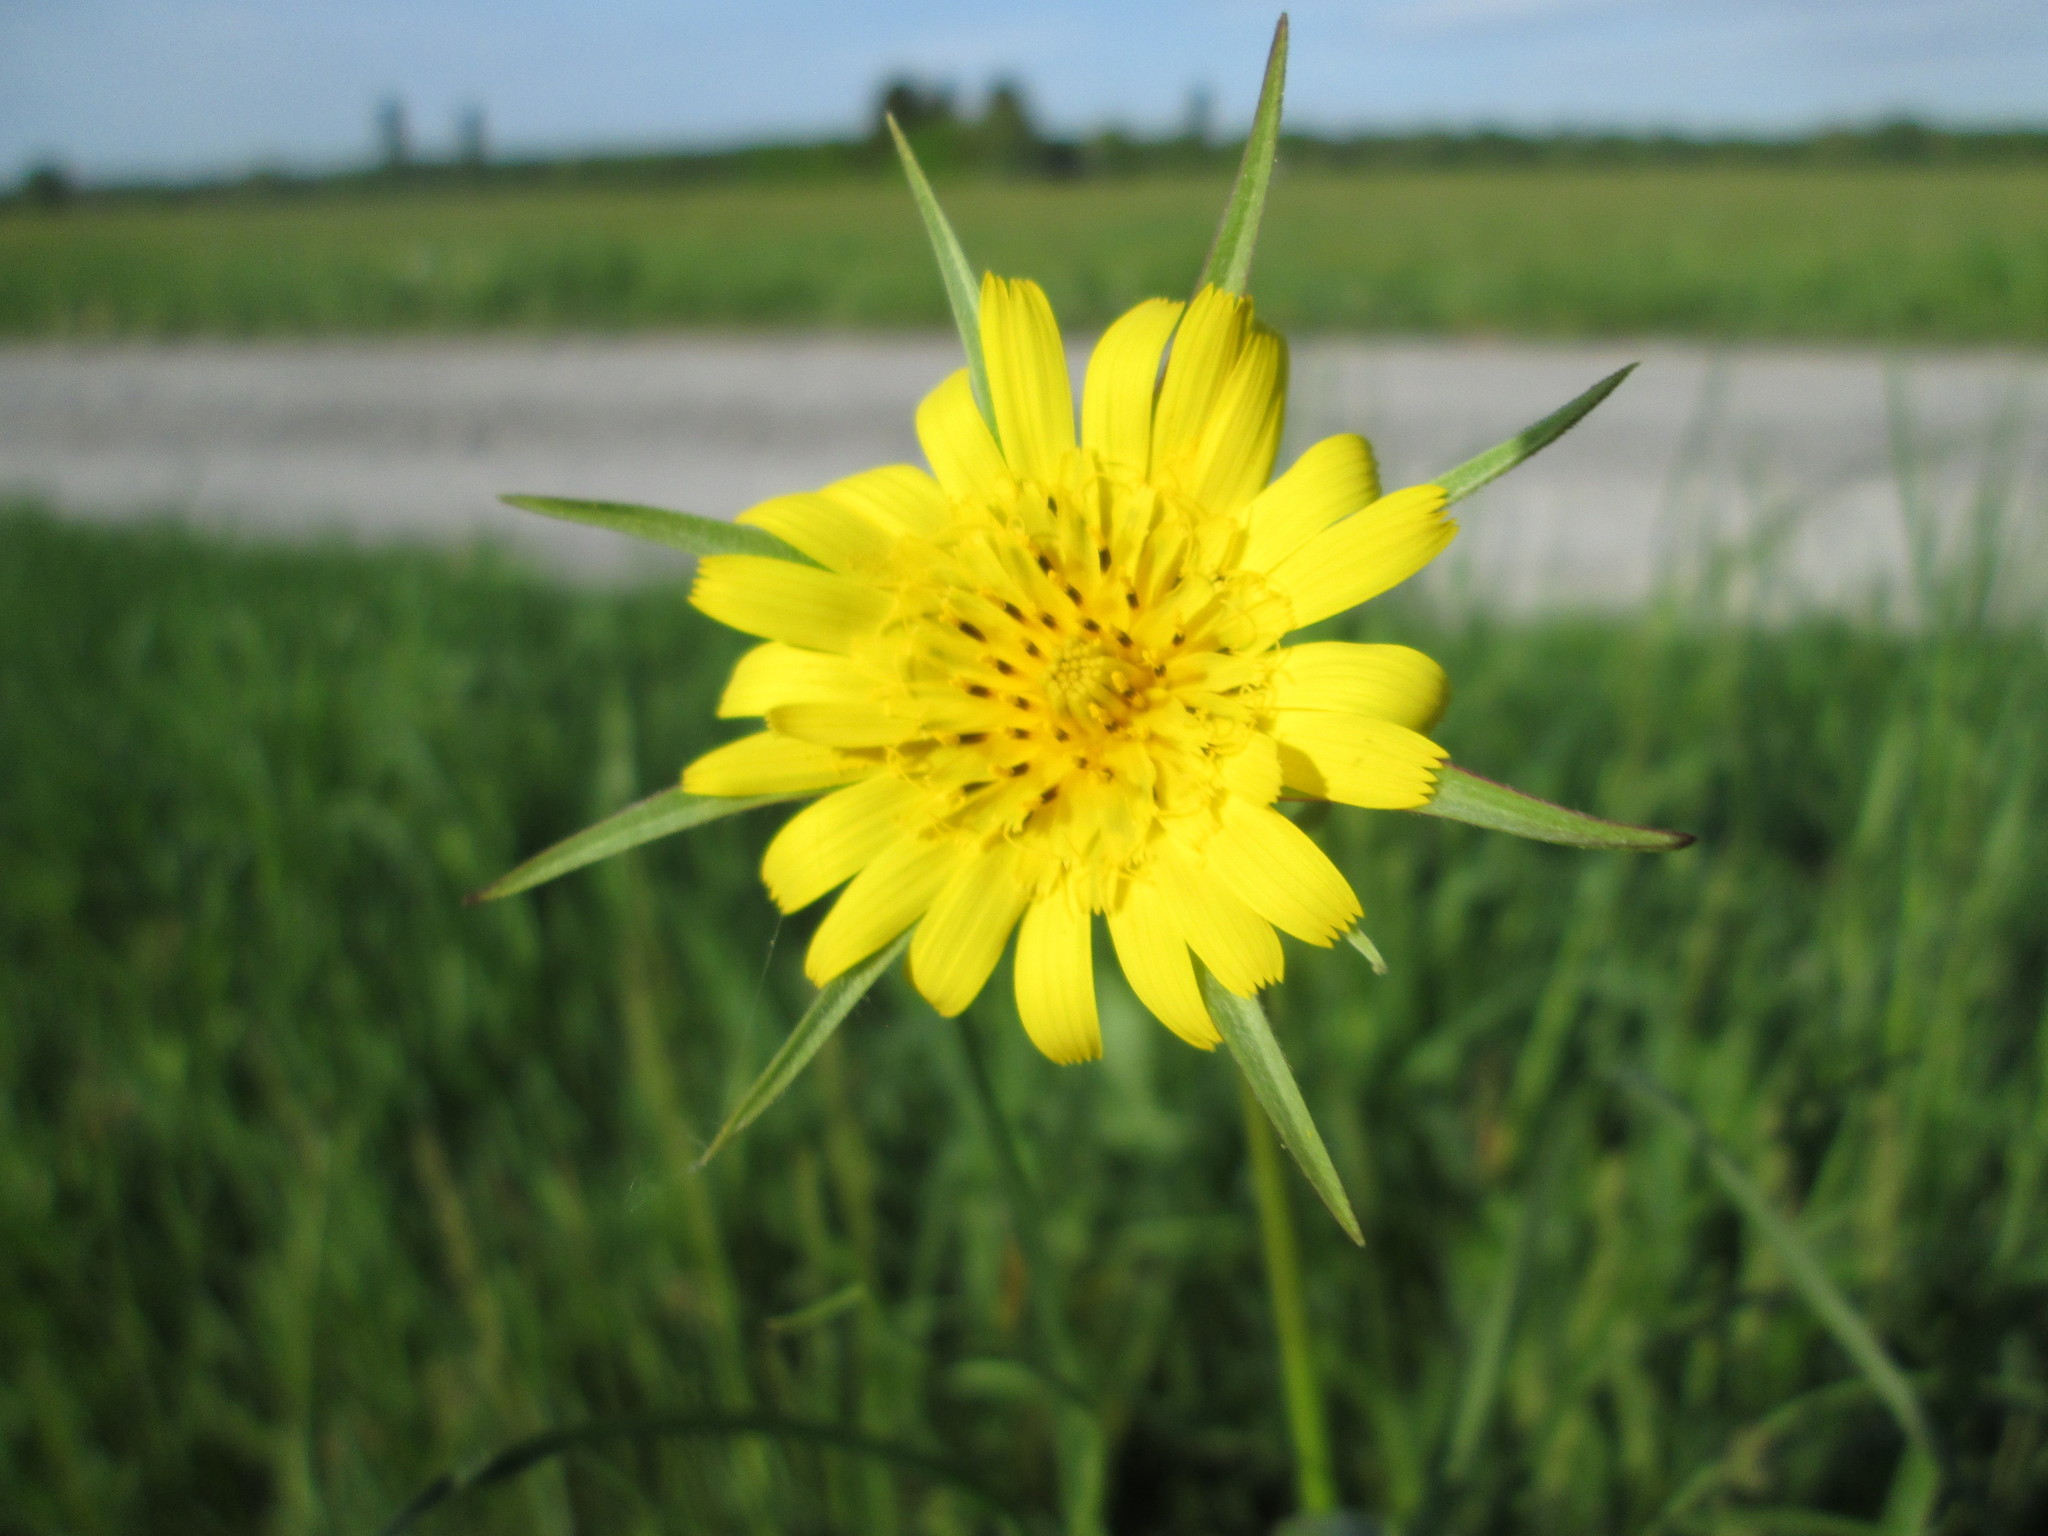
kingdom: Plantae
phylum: Tracheophyta
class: Magnoliopsida
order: Asterales
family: Asteraceae
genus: Tragopogon
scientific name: Tragopogon pratensis
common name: Goat's-beard
